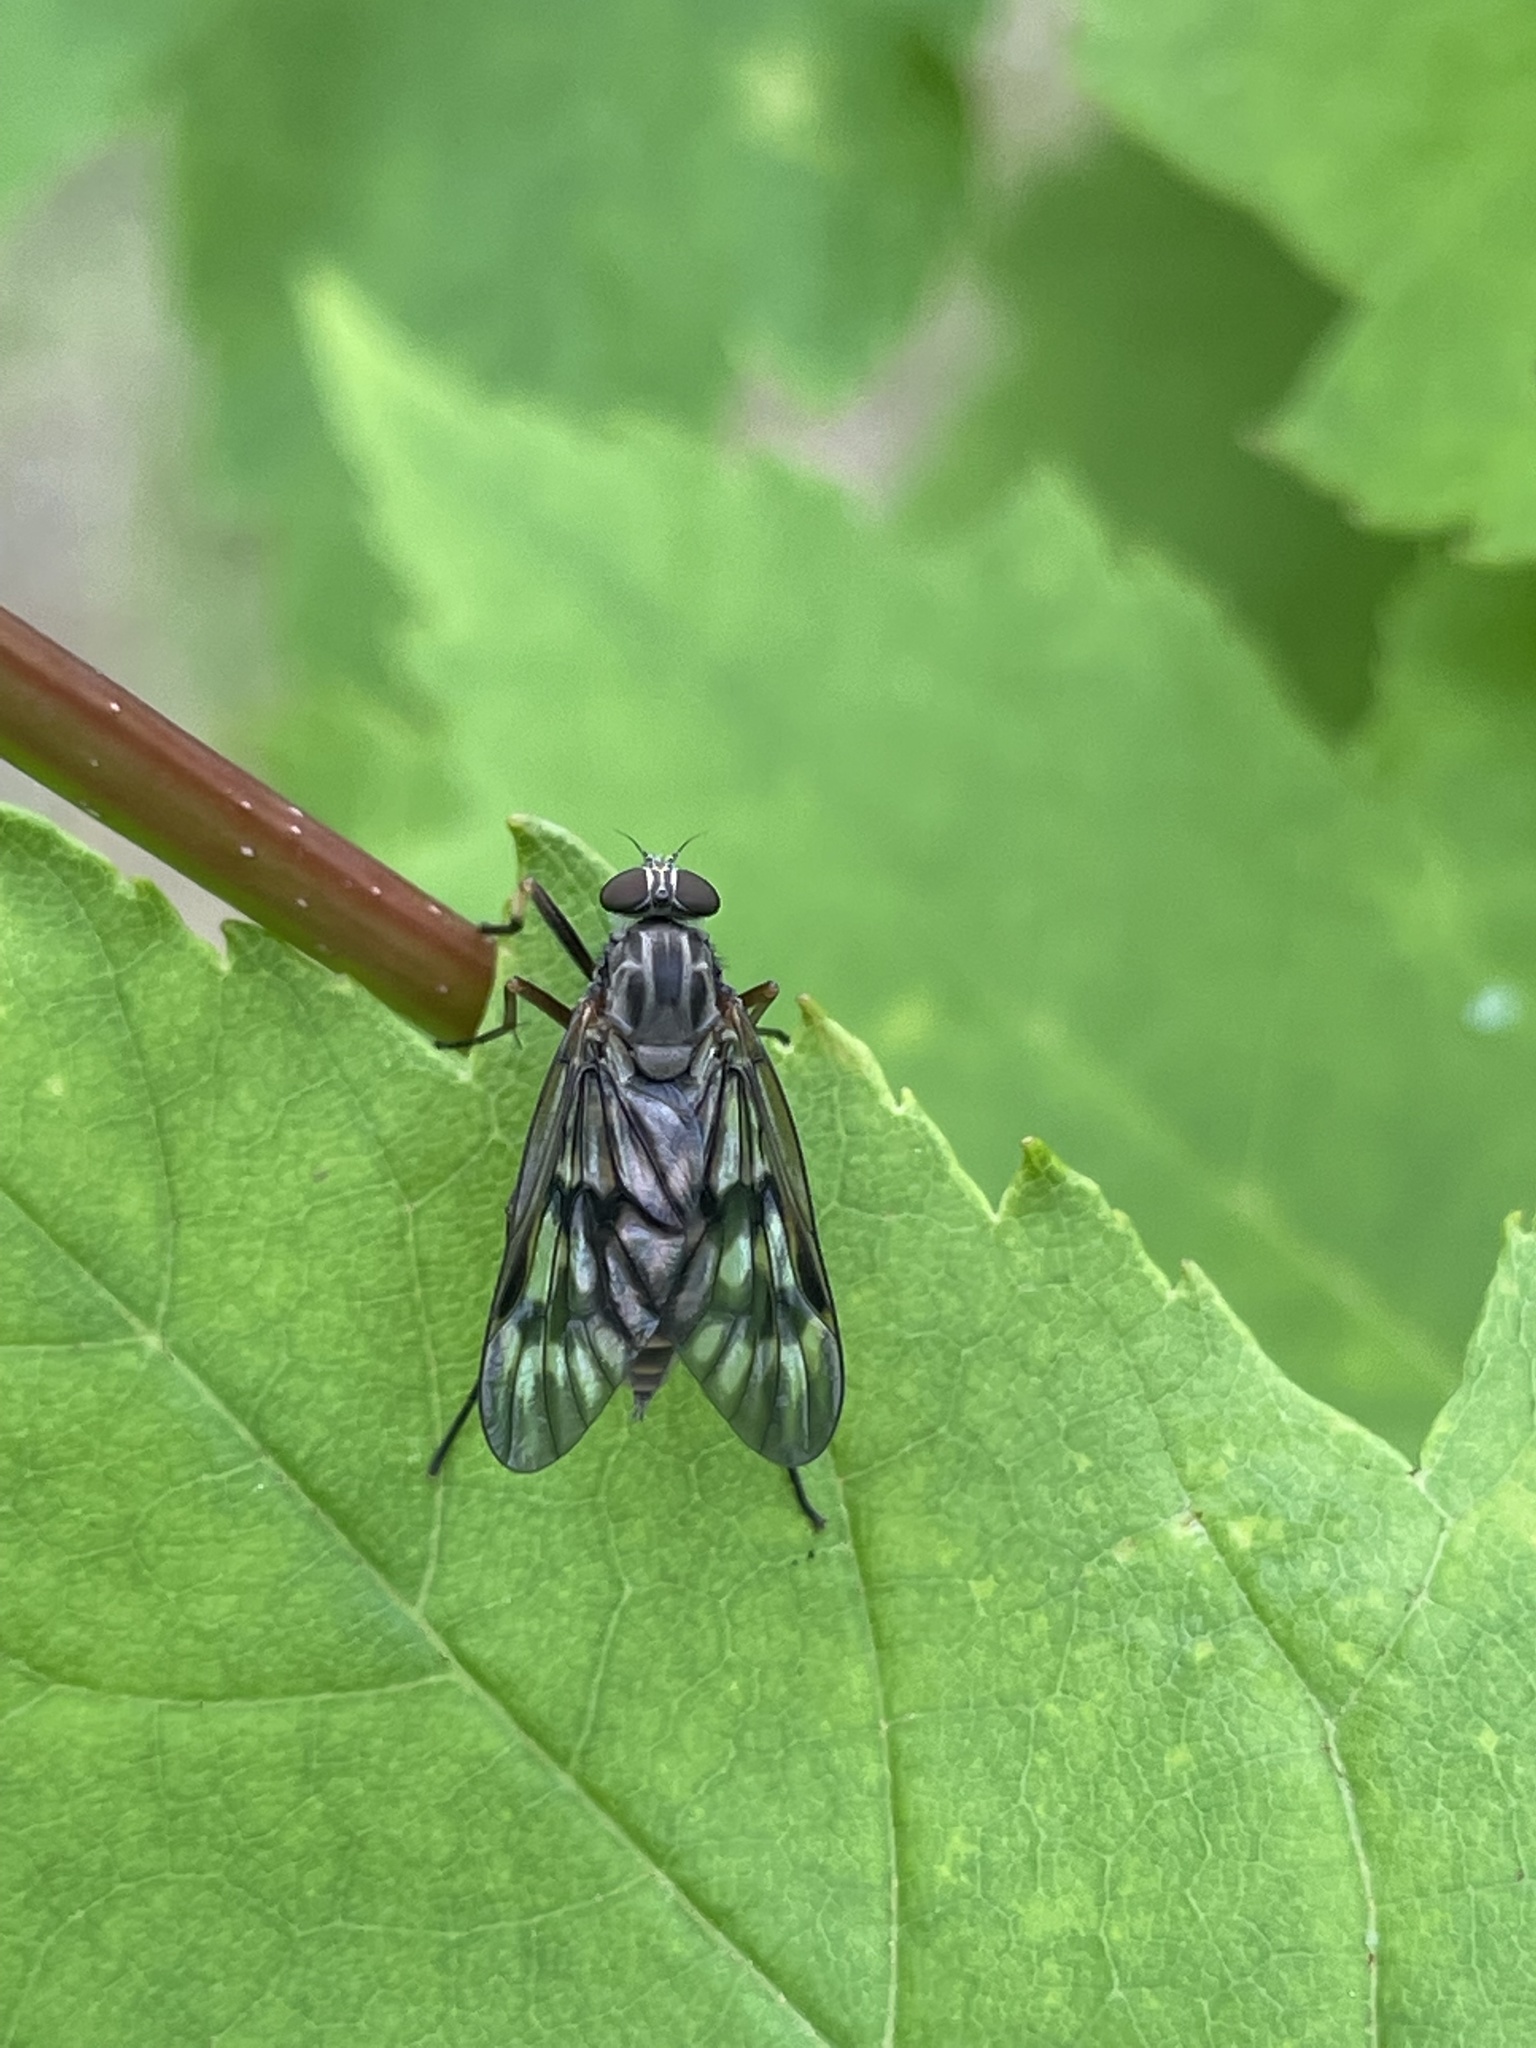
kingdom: Animalia
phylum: Arthropoda
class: Insecta
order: Diptera
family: Rhagionidae
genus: Rhagio
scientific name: Rhagio mystaceus
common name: Common snipe fly
